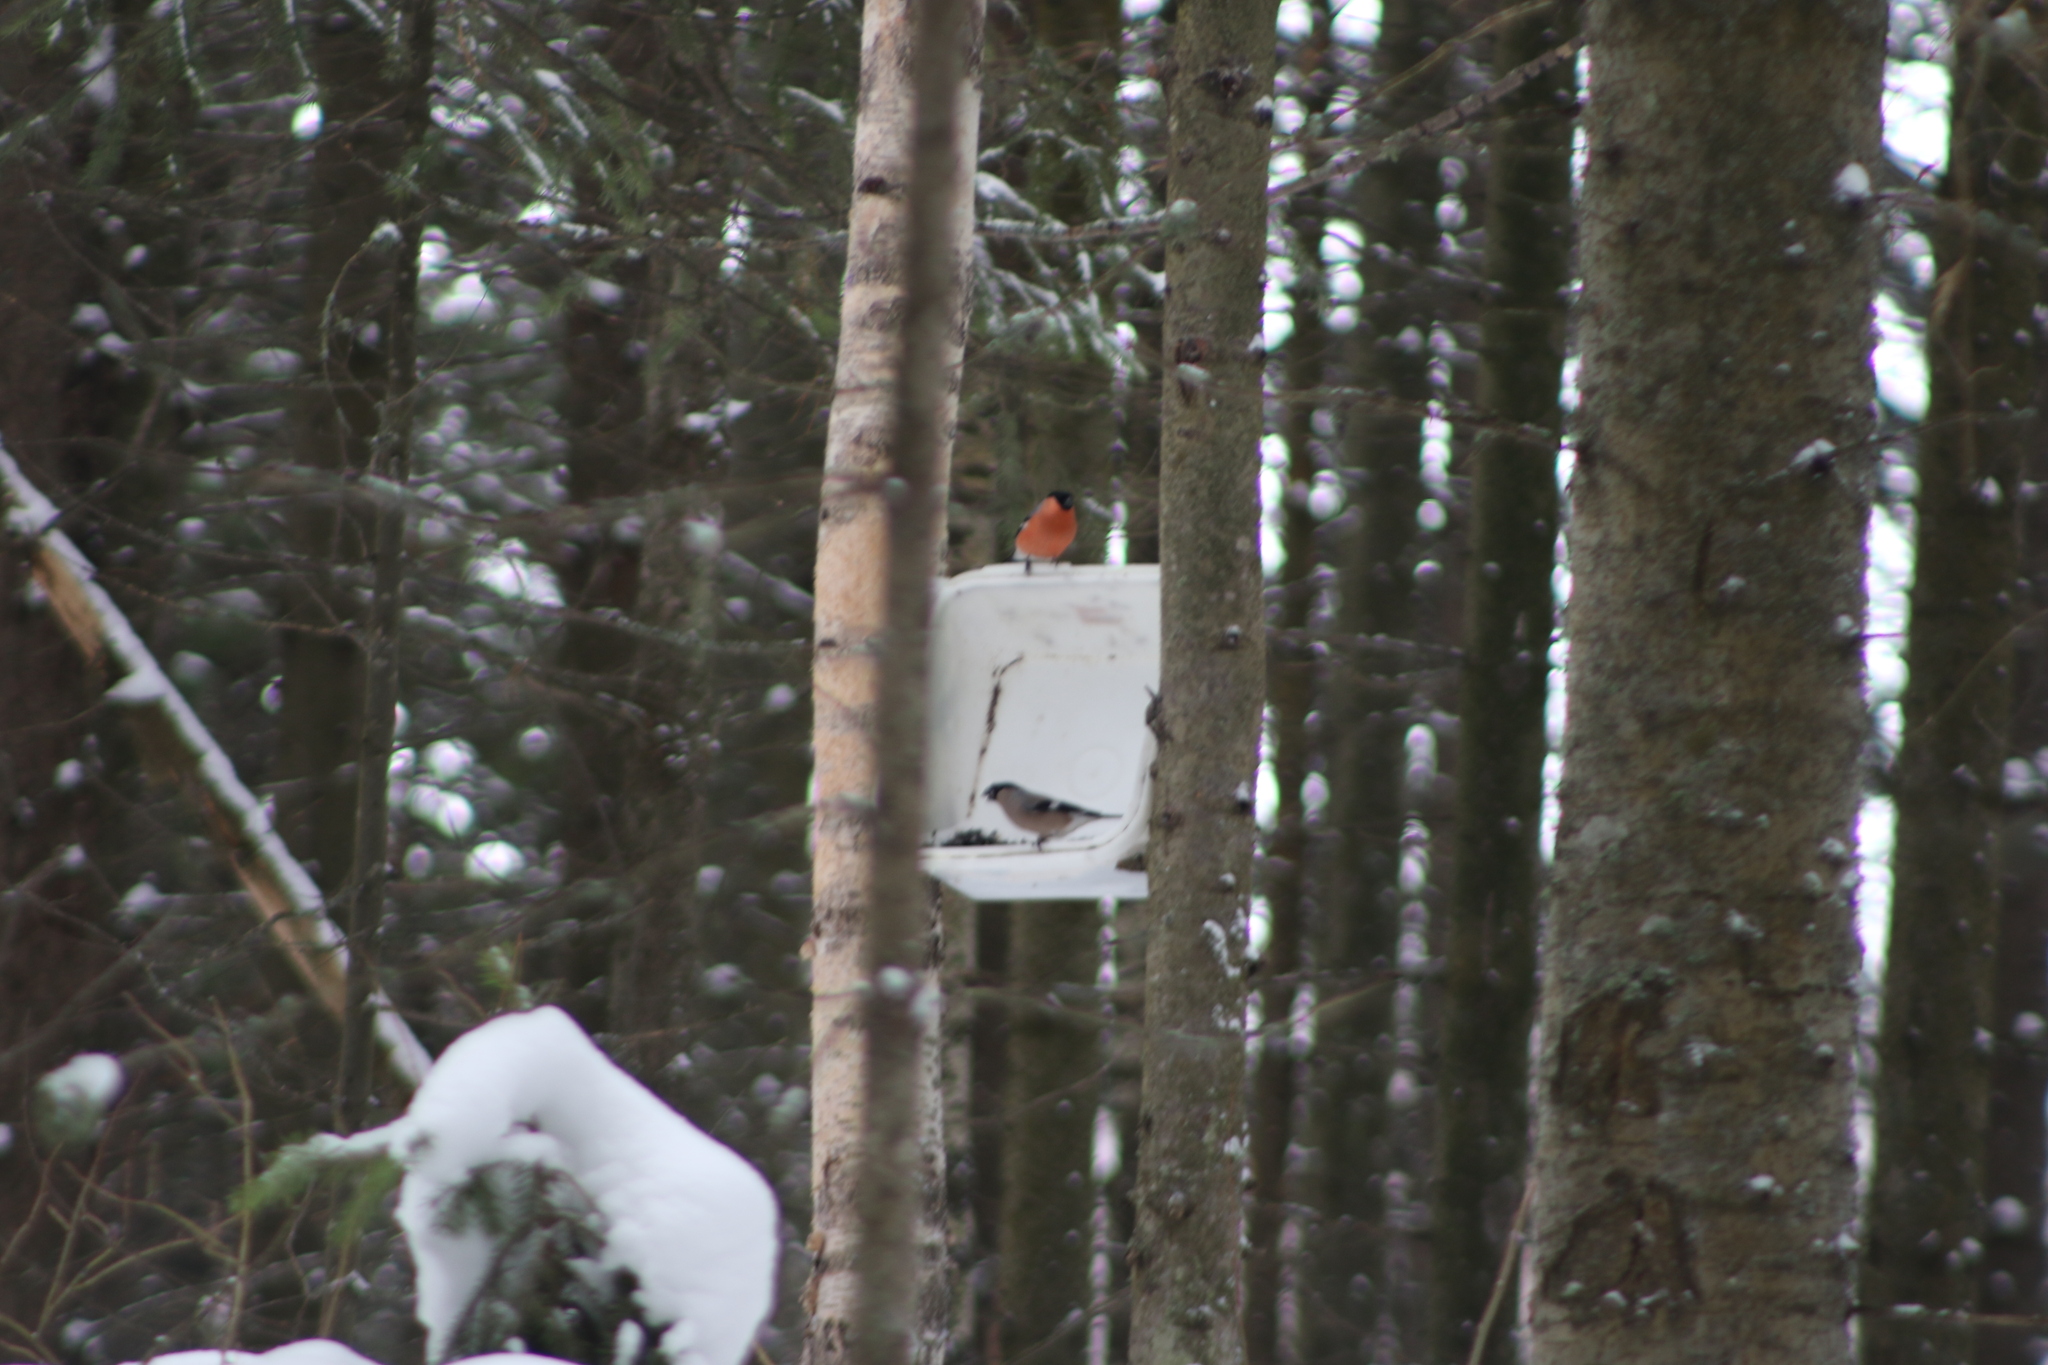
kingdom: Animalia
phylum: Chordata
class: Aves
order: Passeriformes
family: Fringillidae
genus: Pyrrhula
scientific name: Pyrrhula pyrrhula
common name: Eurasian bullfinch
